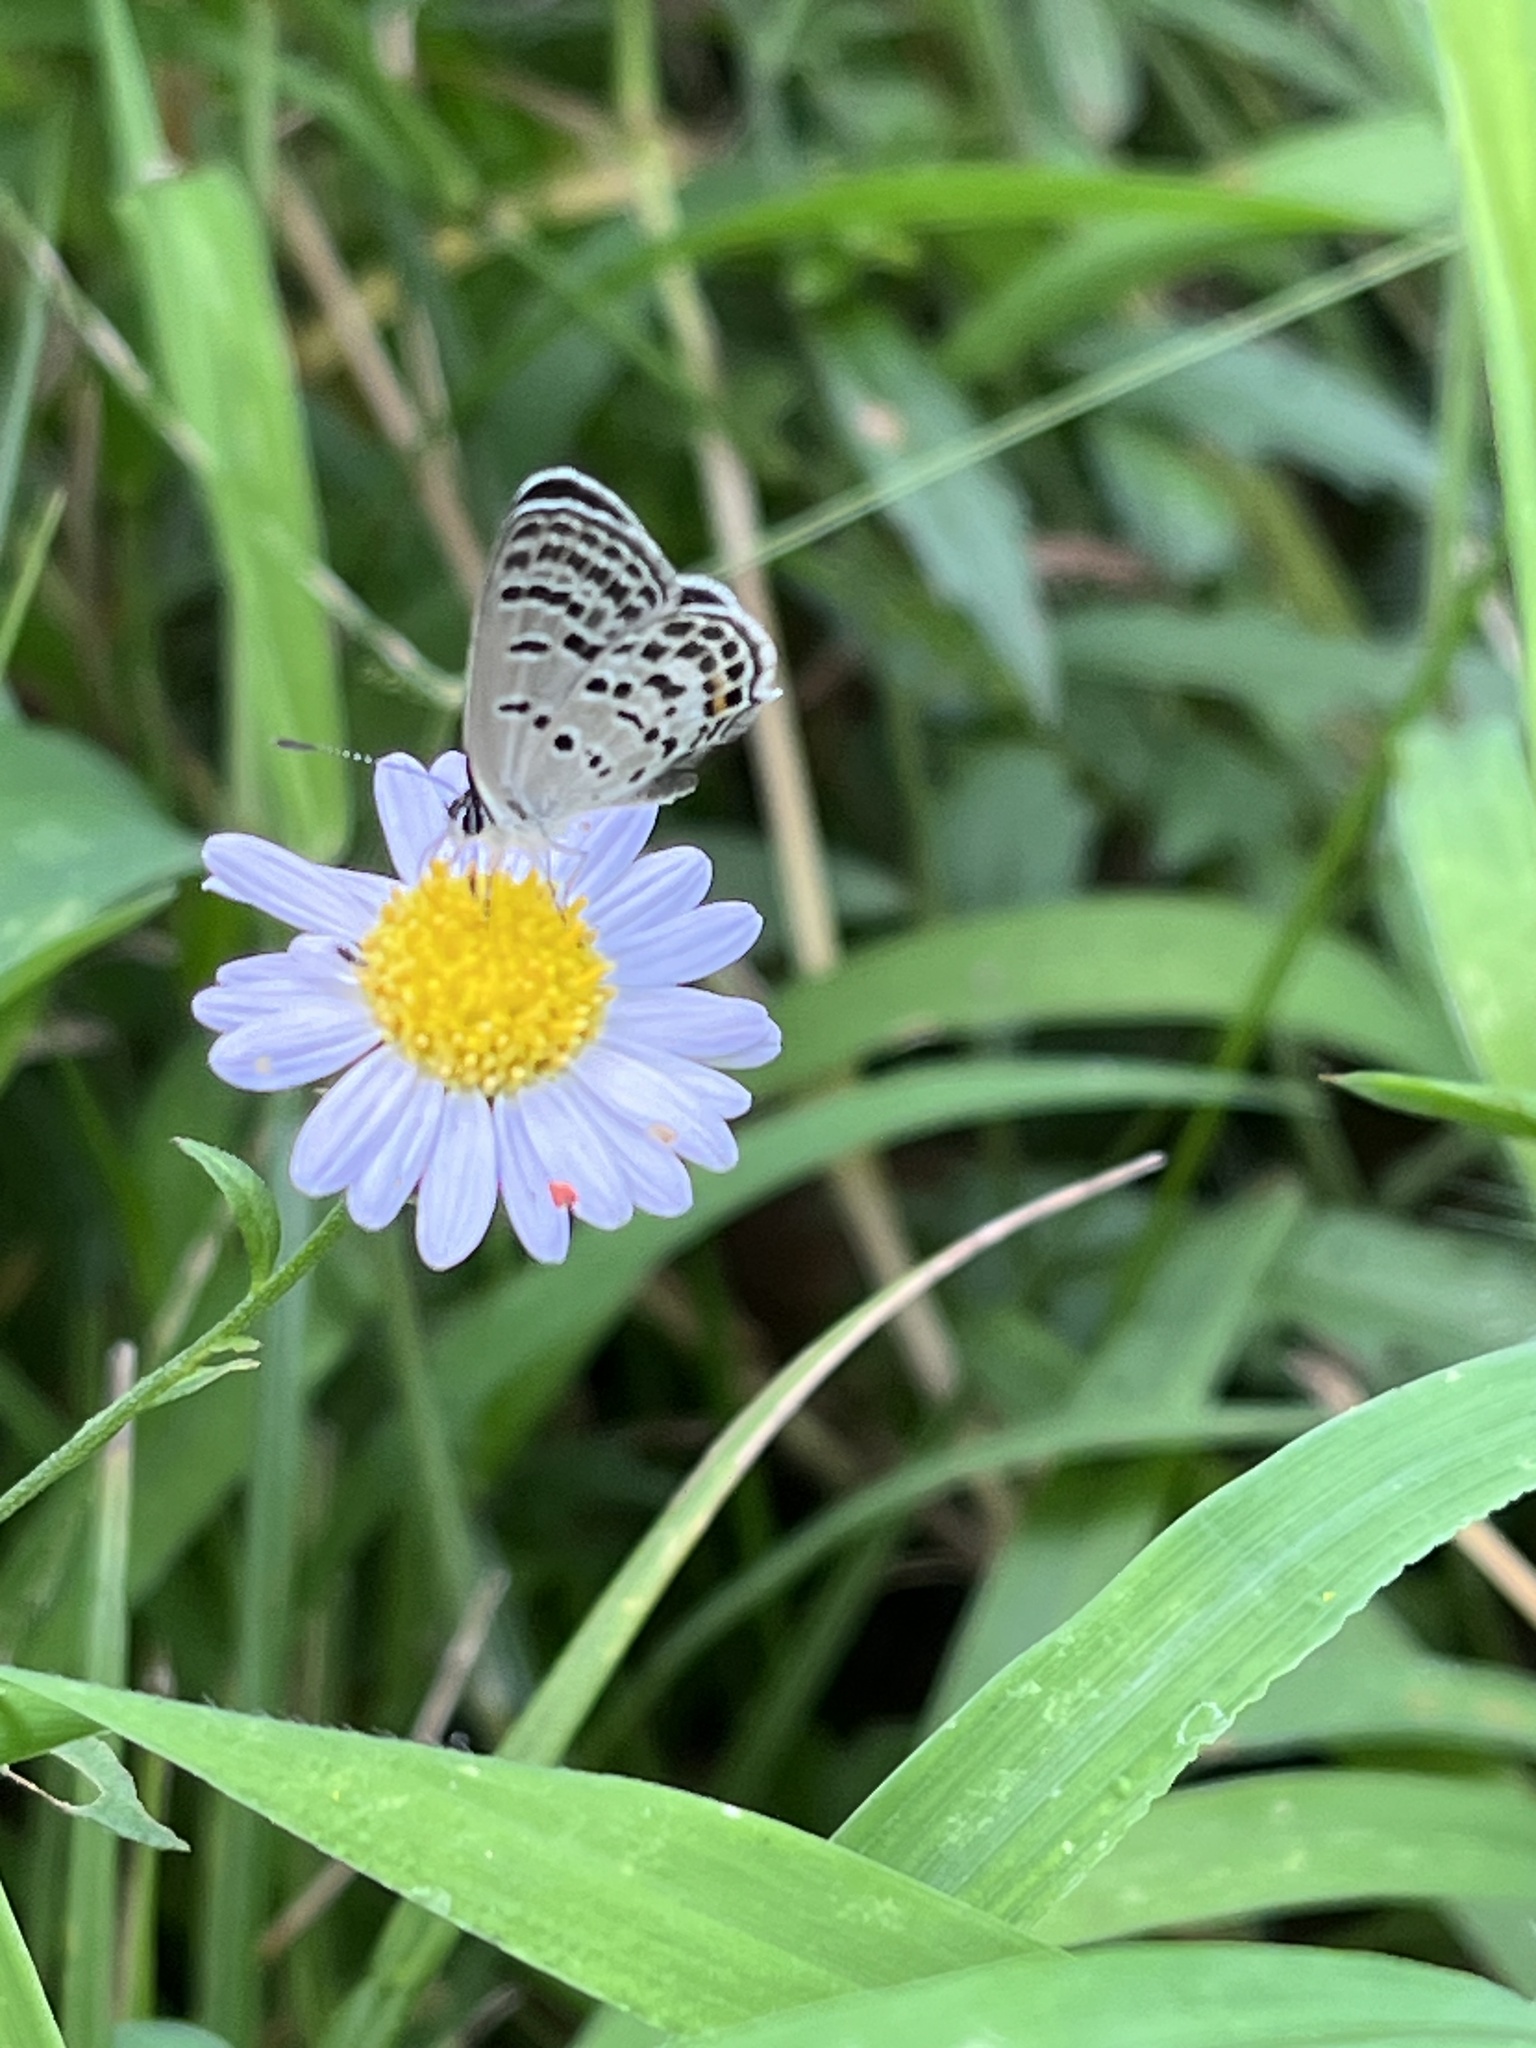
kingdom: Animalia
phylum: Arthropoda
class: Insecta
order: Lepidoptera
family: Lycaenidae
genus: Tongeia
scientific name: Tongeia filicaudis
